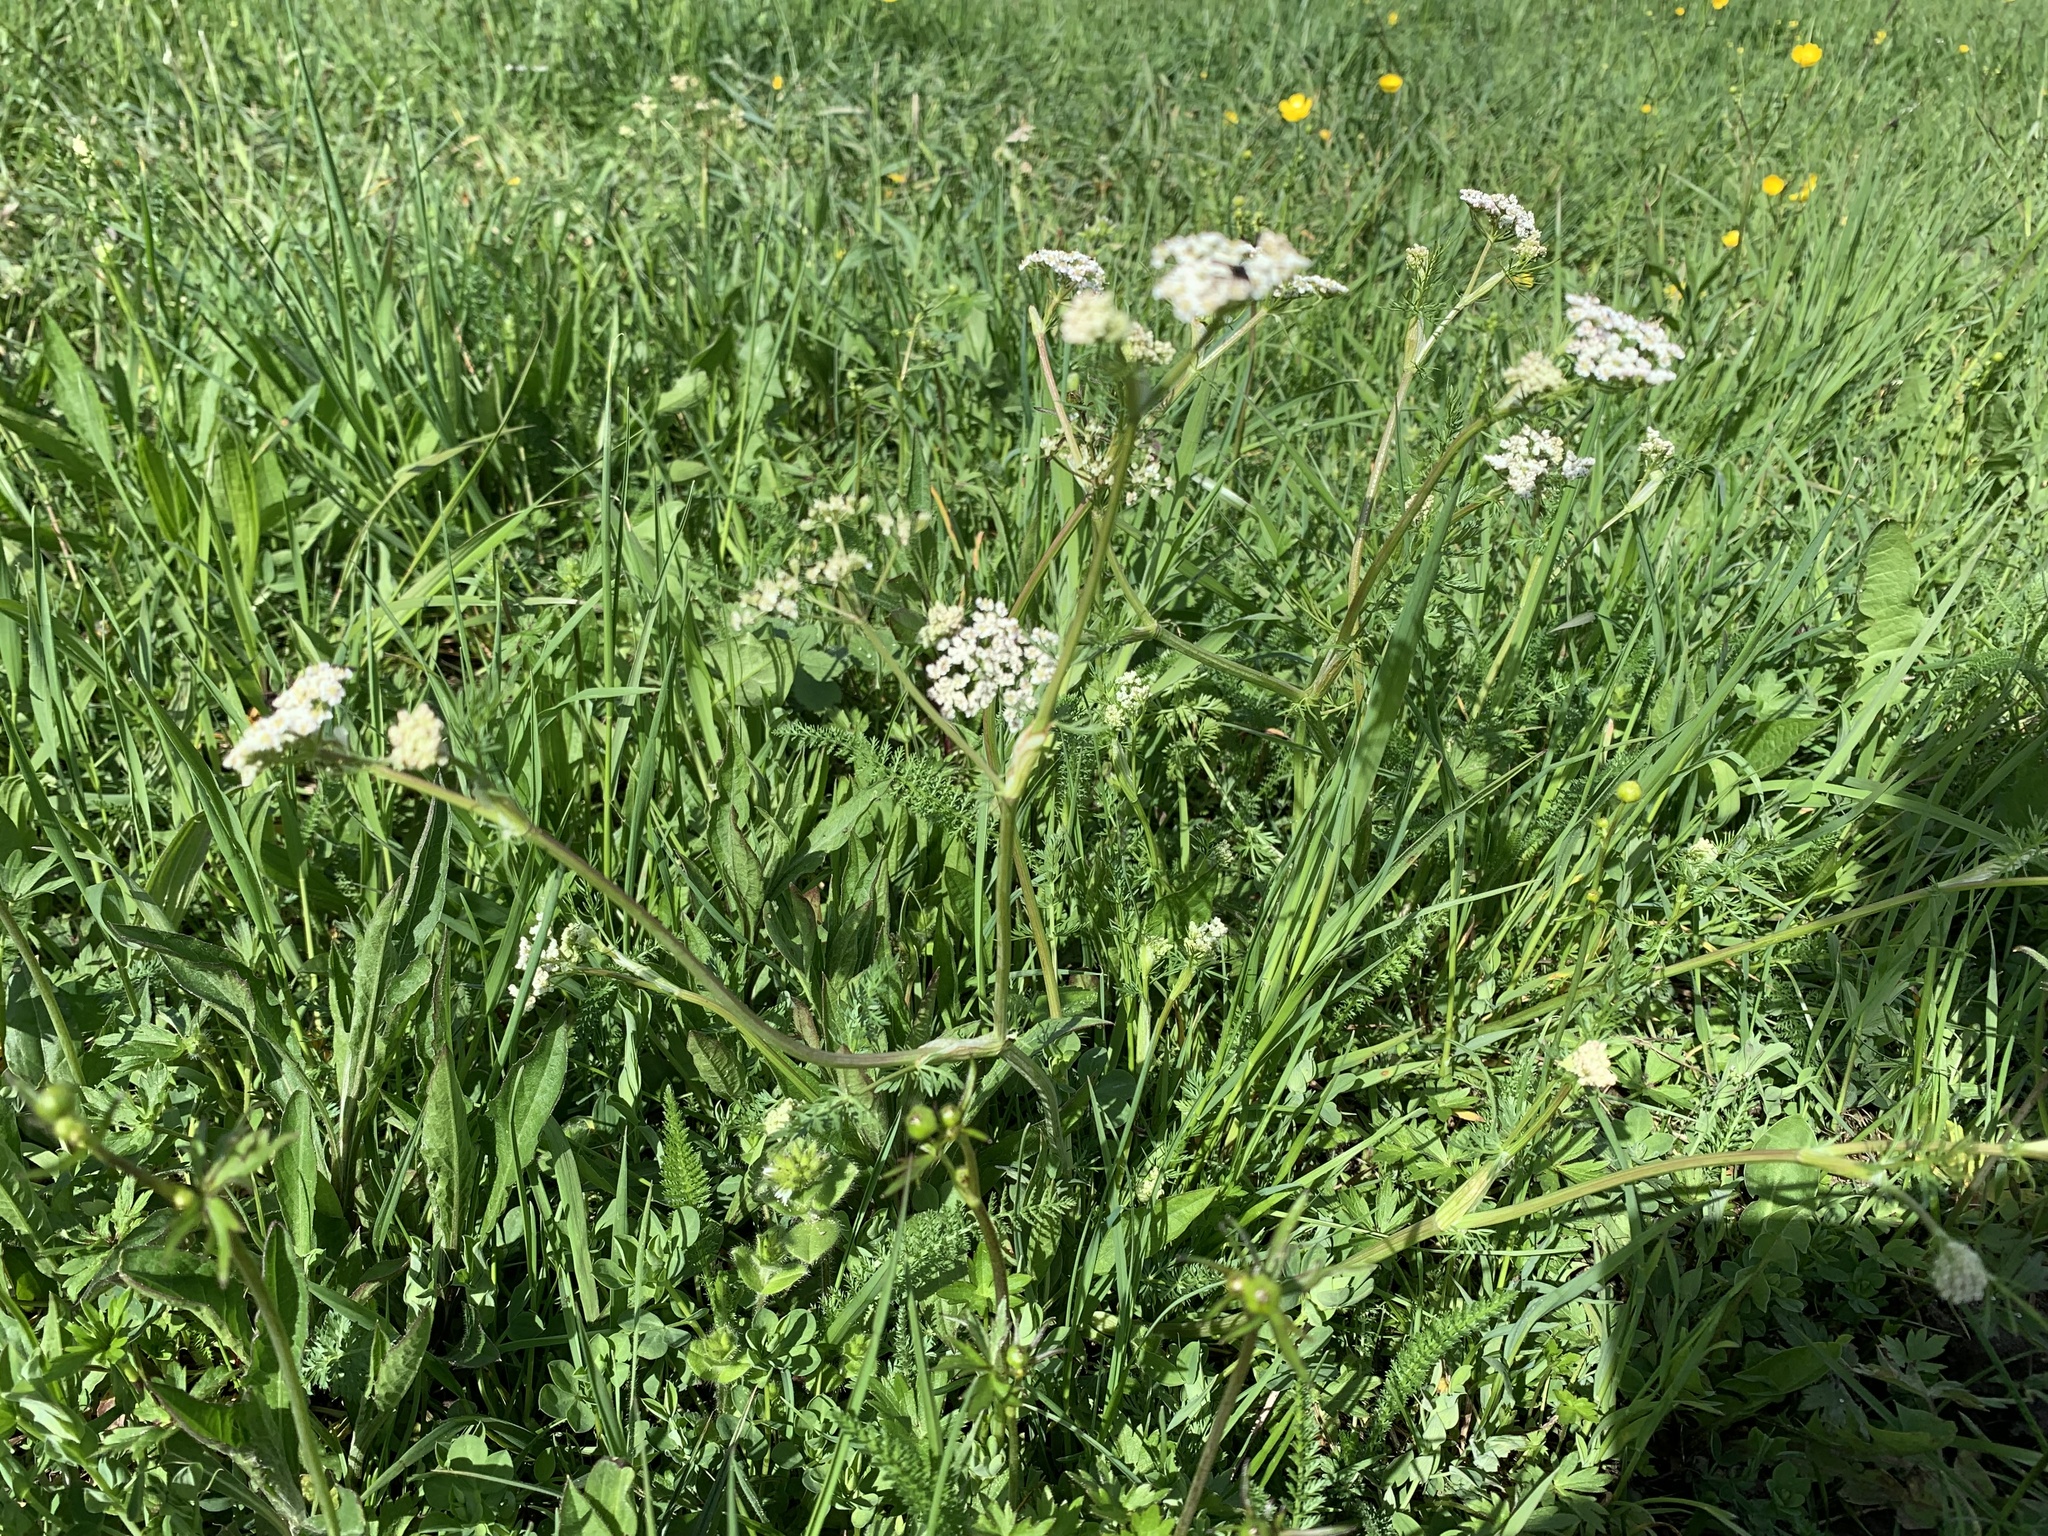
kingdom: Plantae
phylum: Tracheophyta
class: Magnoliopsida
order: Apiales
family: Apiaceae
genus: Meum
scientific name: Meum athamanticum
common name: Spignel
